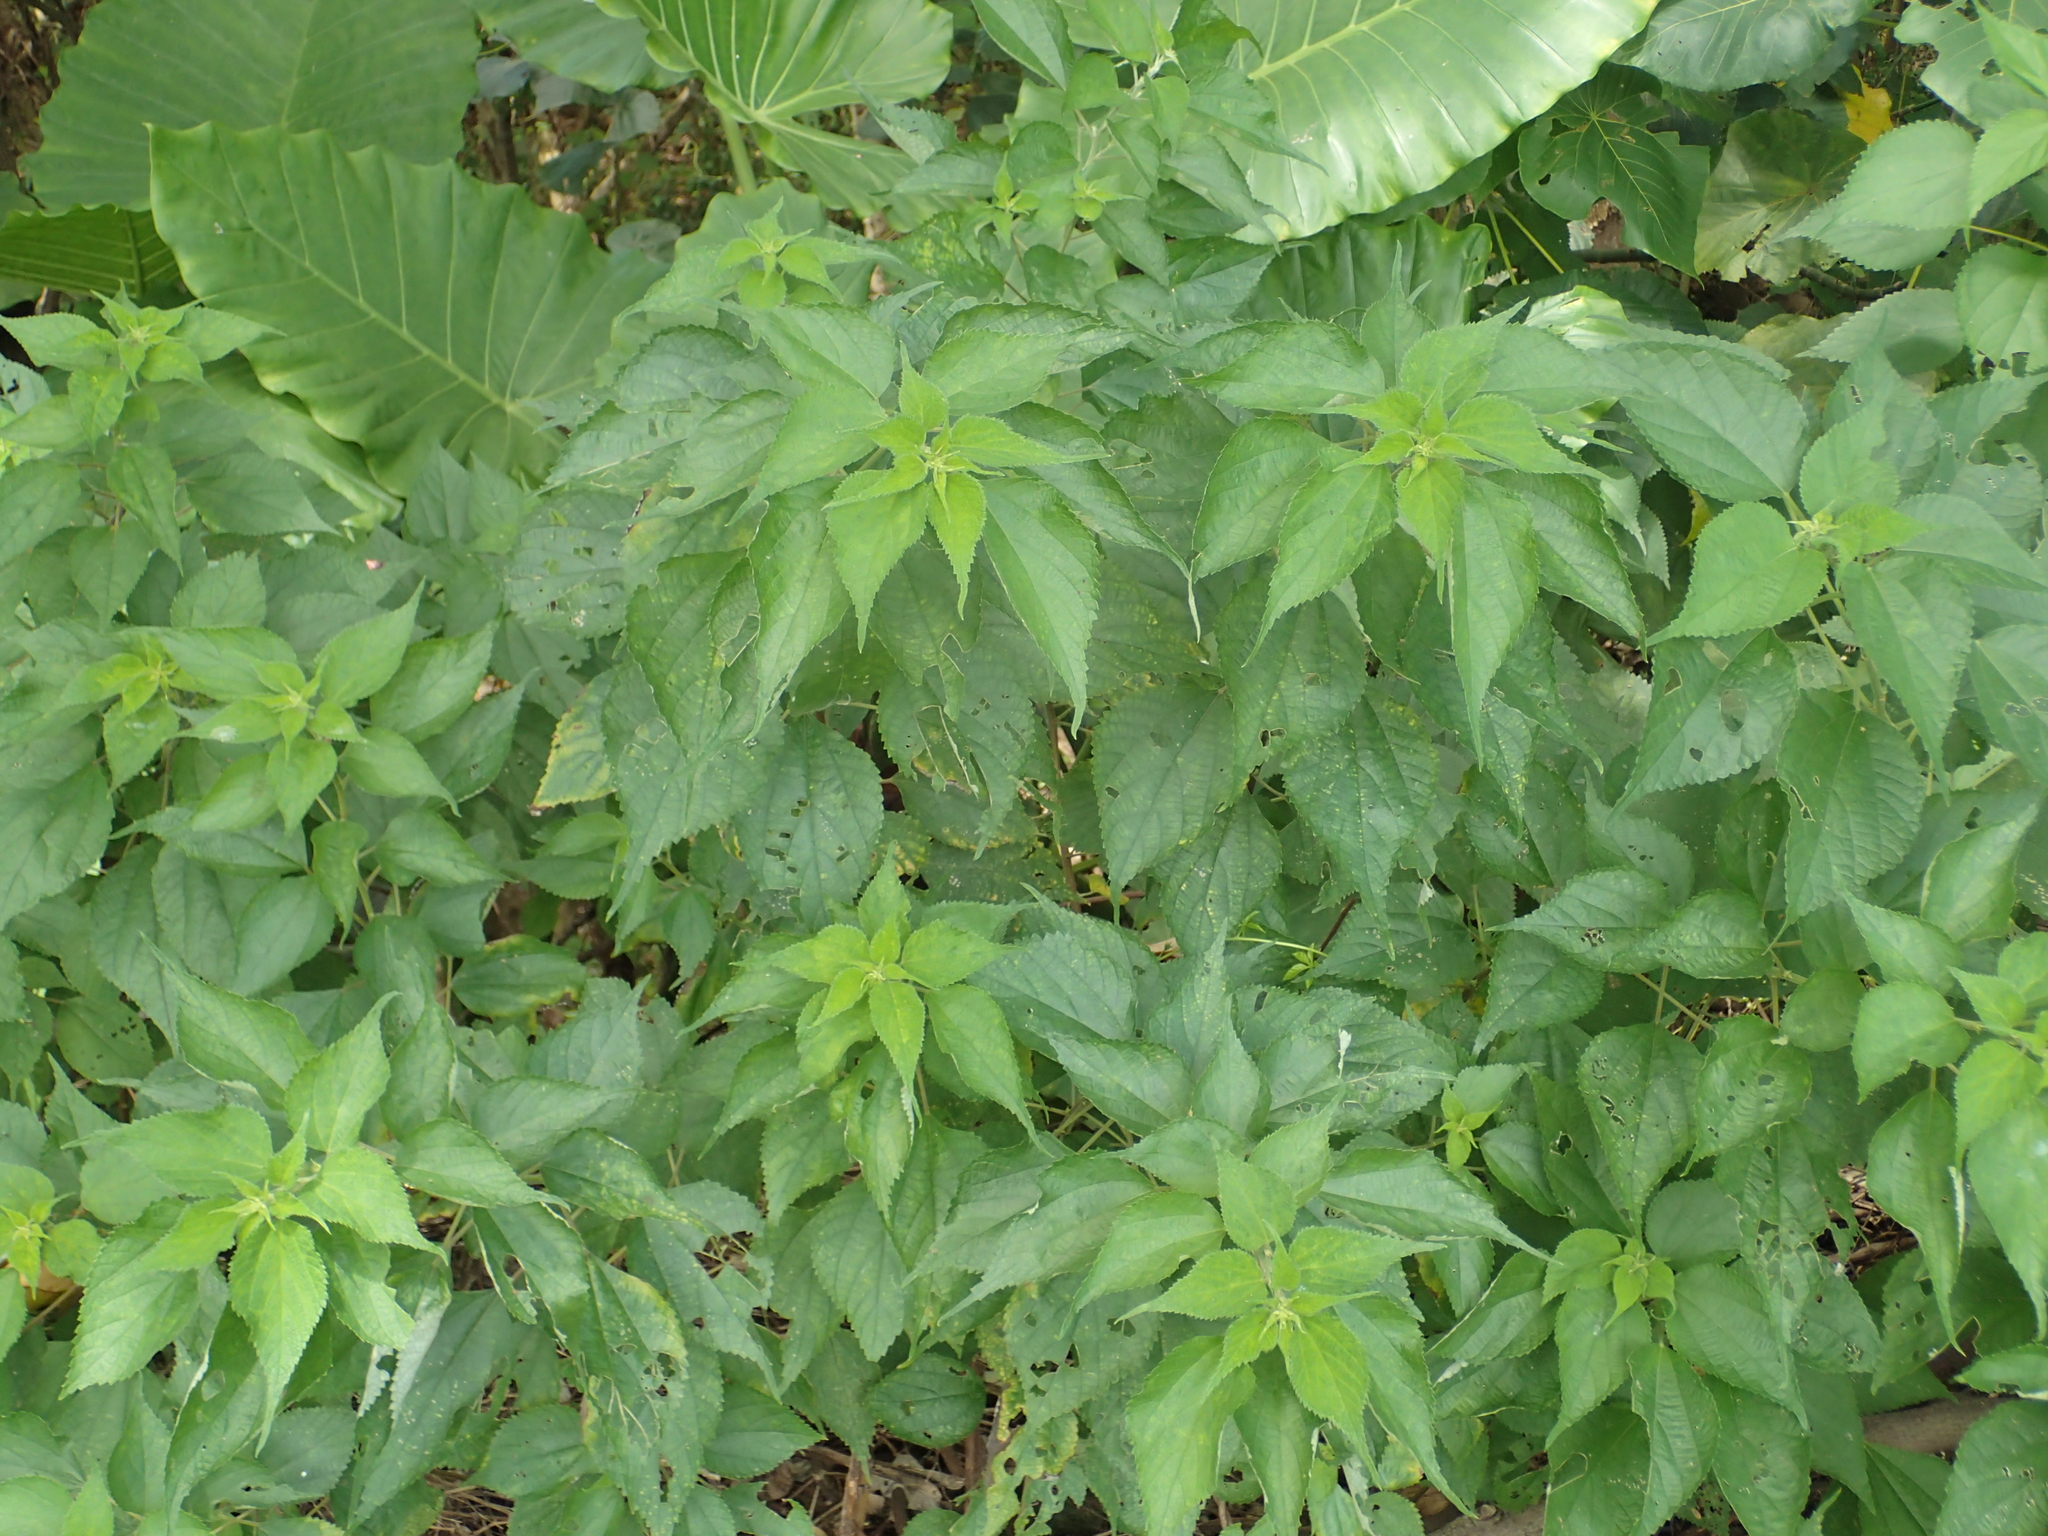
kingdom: Plantae
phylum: Tracheophyta
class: Magnoliopsida
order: Rosales
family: Urticaceae
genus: Boehmeria
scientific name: Boehmeria nivea
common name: Ramie chinese grass
